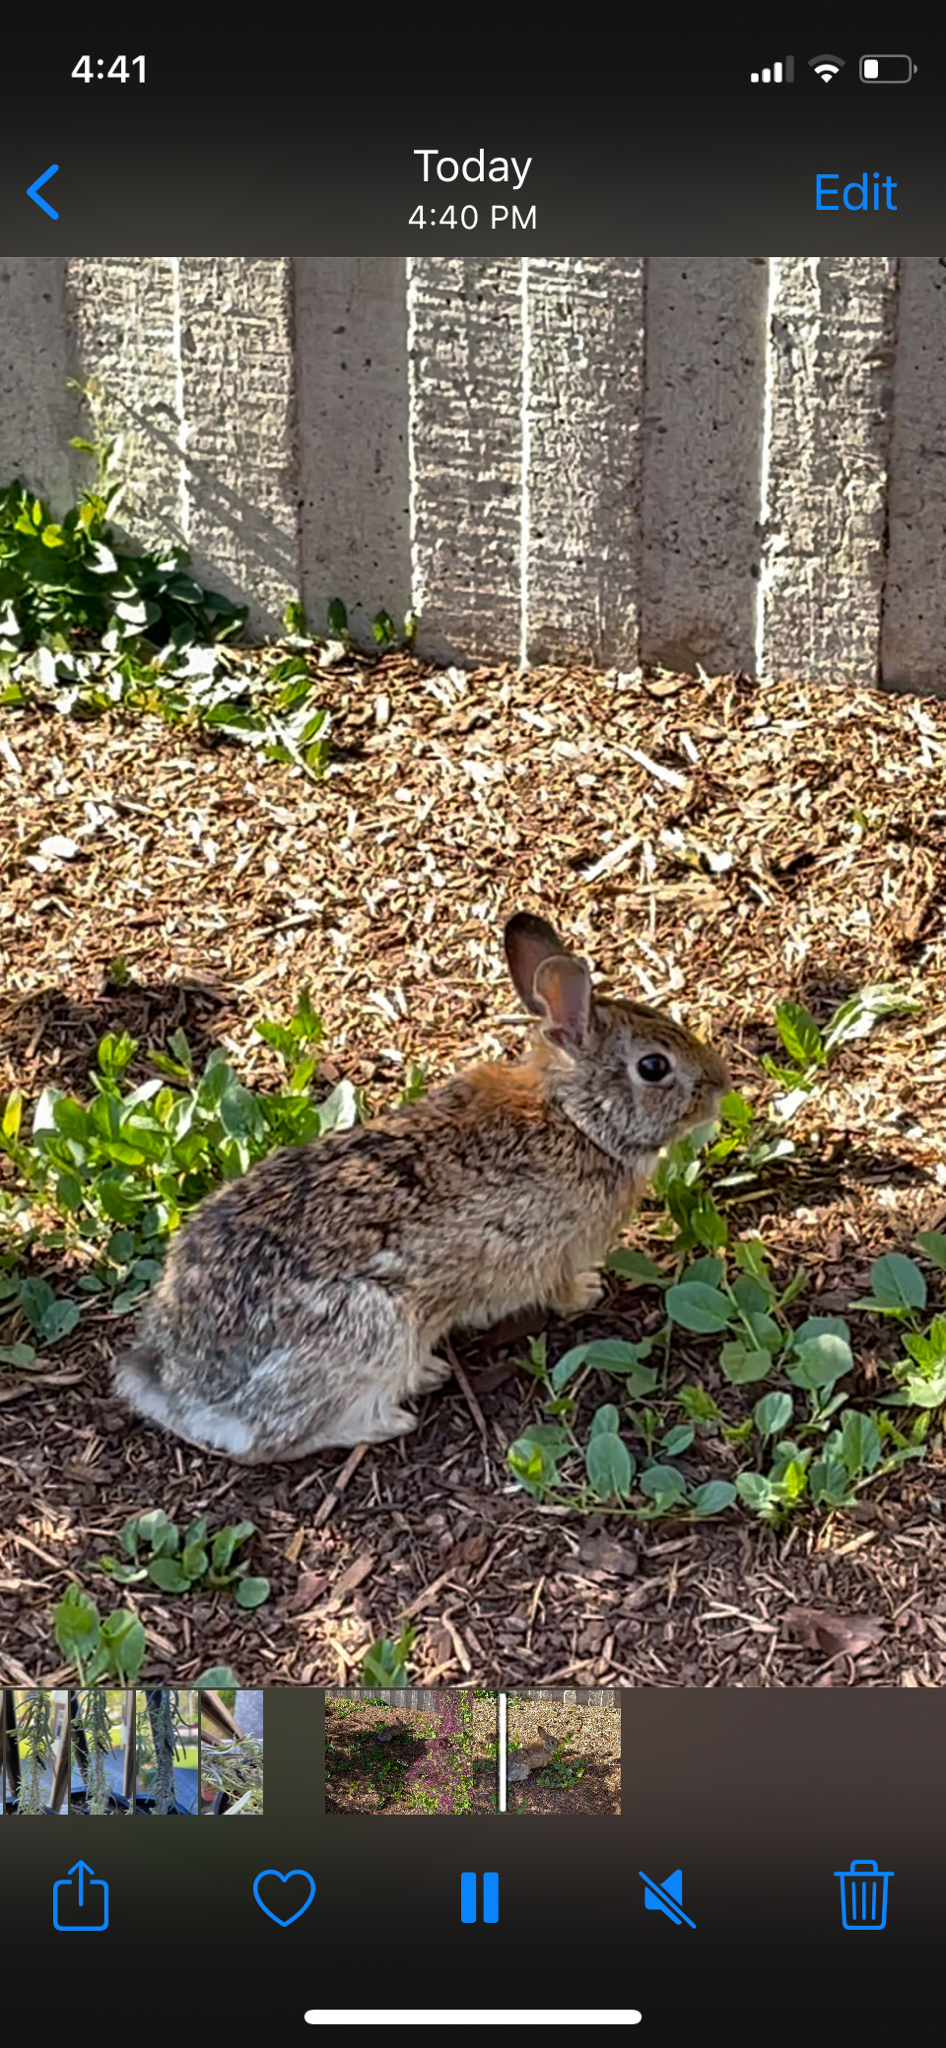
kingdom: Animalia
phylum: Chordata
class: Mammalia
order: Lagomorpha
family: Leporidae
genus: Sylvilagus
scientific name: Sylvilagus floridanus
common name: Eastern cottontail
